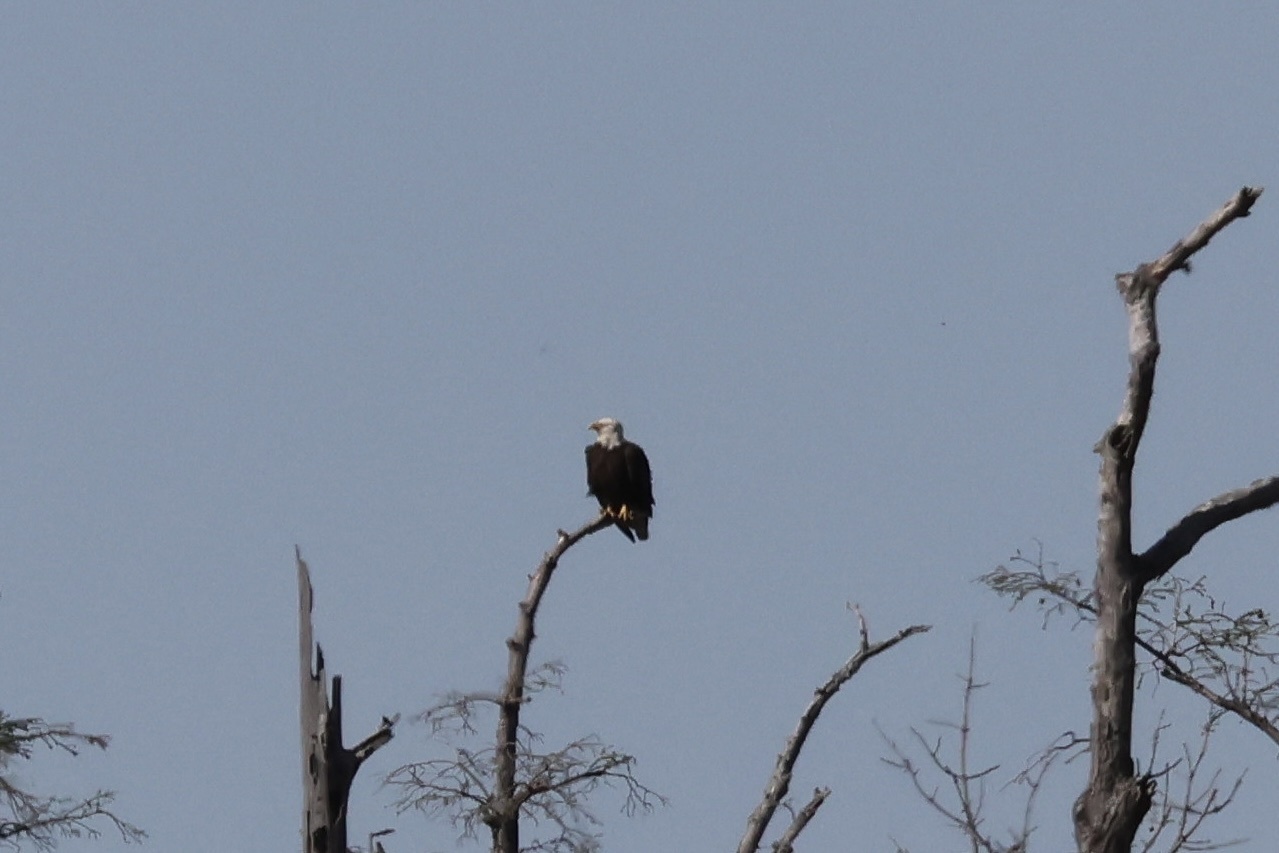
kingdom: Animalia
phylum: Chordata
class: Aves
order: Accipitriformes
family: Accipitridae
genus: Haliaeetus
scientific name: Haliaeetus leucocephalus
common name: Bald eagle
